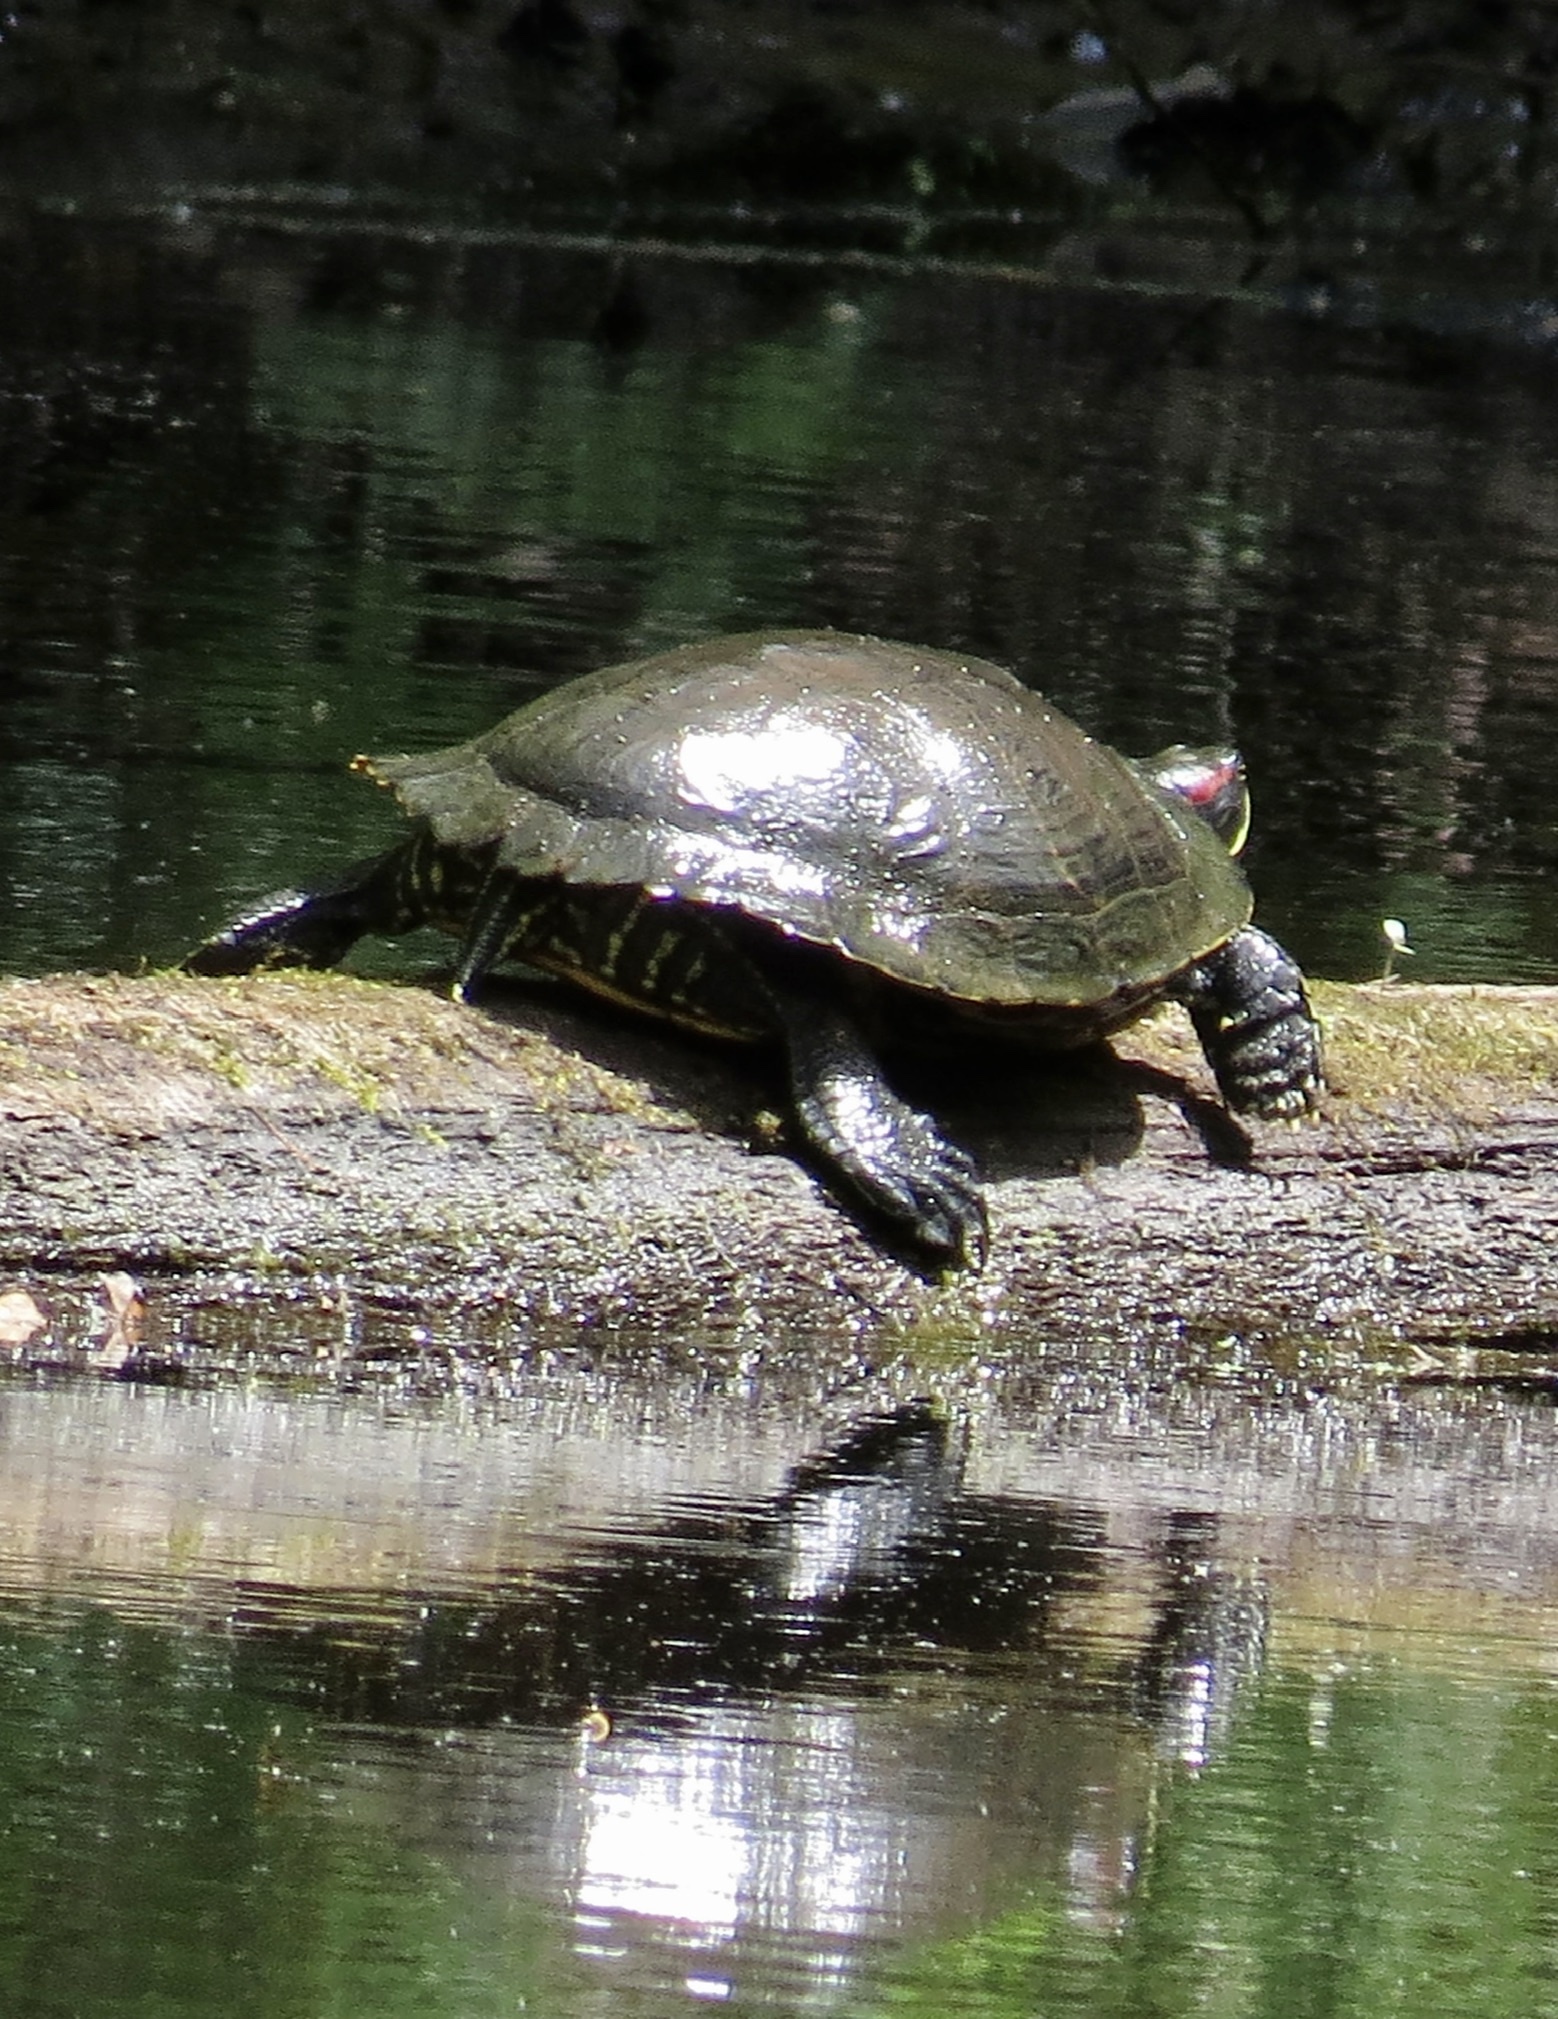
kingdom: Animalia
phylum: Chordata
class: Testudines
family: Emydidae
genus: Trachemys
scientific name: Trachemys scripta
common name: Slider
